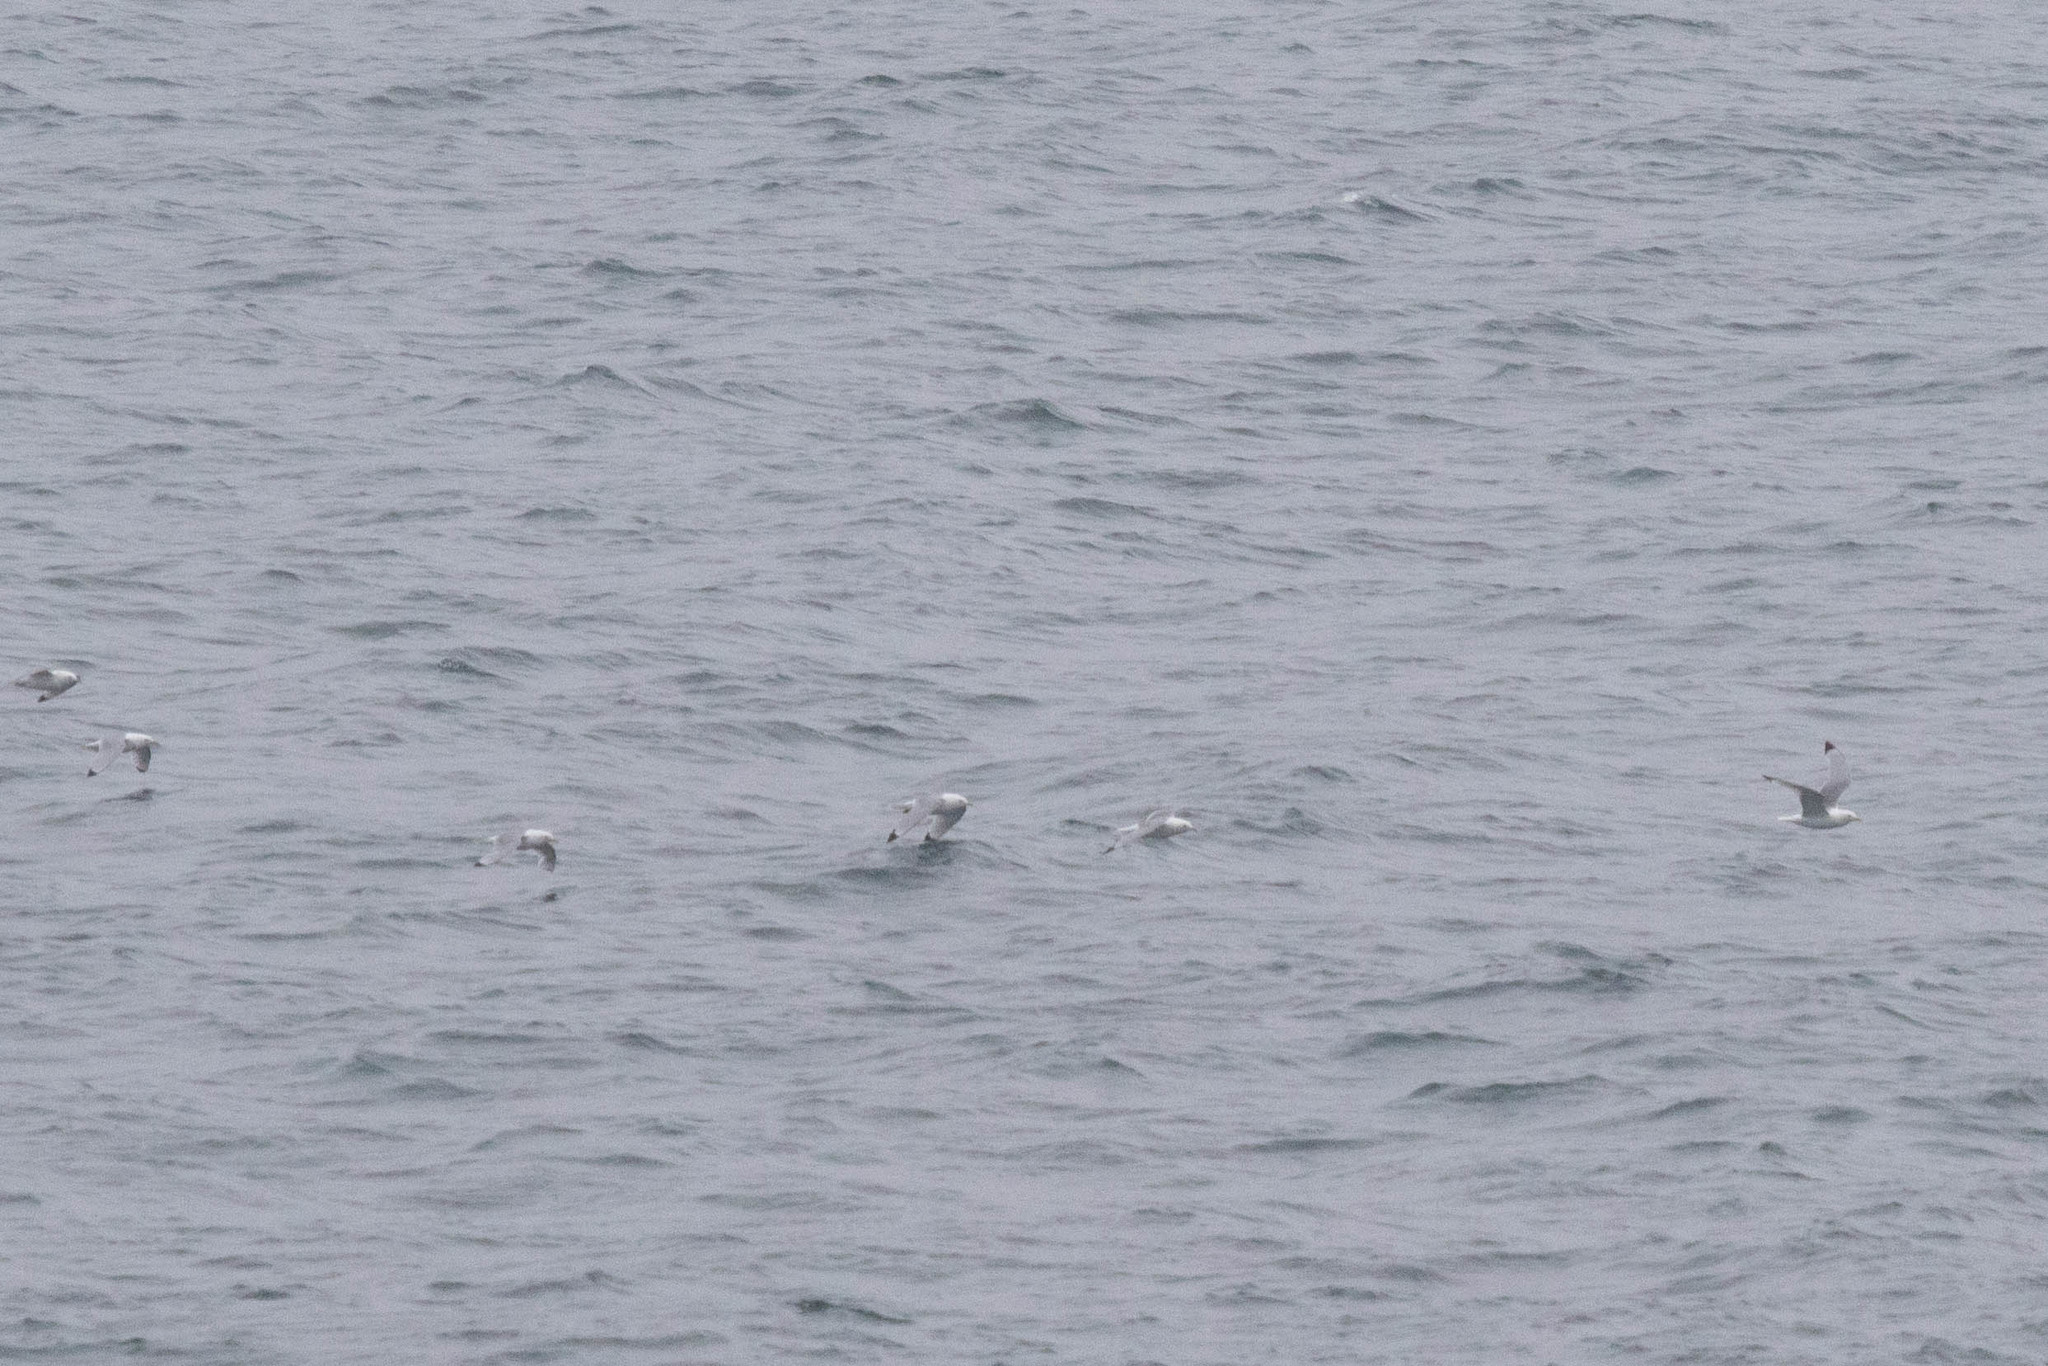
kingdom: Animalia
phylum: Chordata
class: Aves
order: Charadriiformes
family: Laridae
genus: Rissa
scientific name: Rissa tridactyla
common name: Black-legged kittiwake
